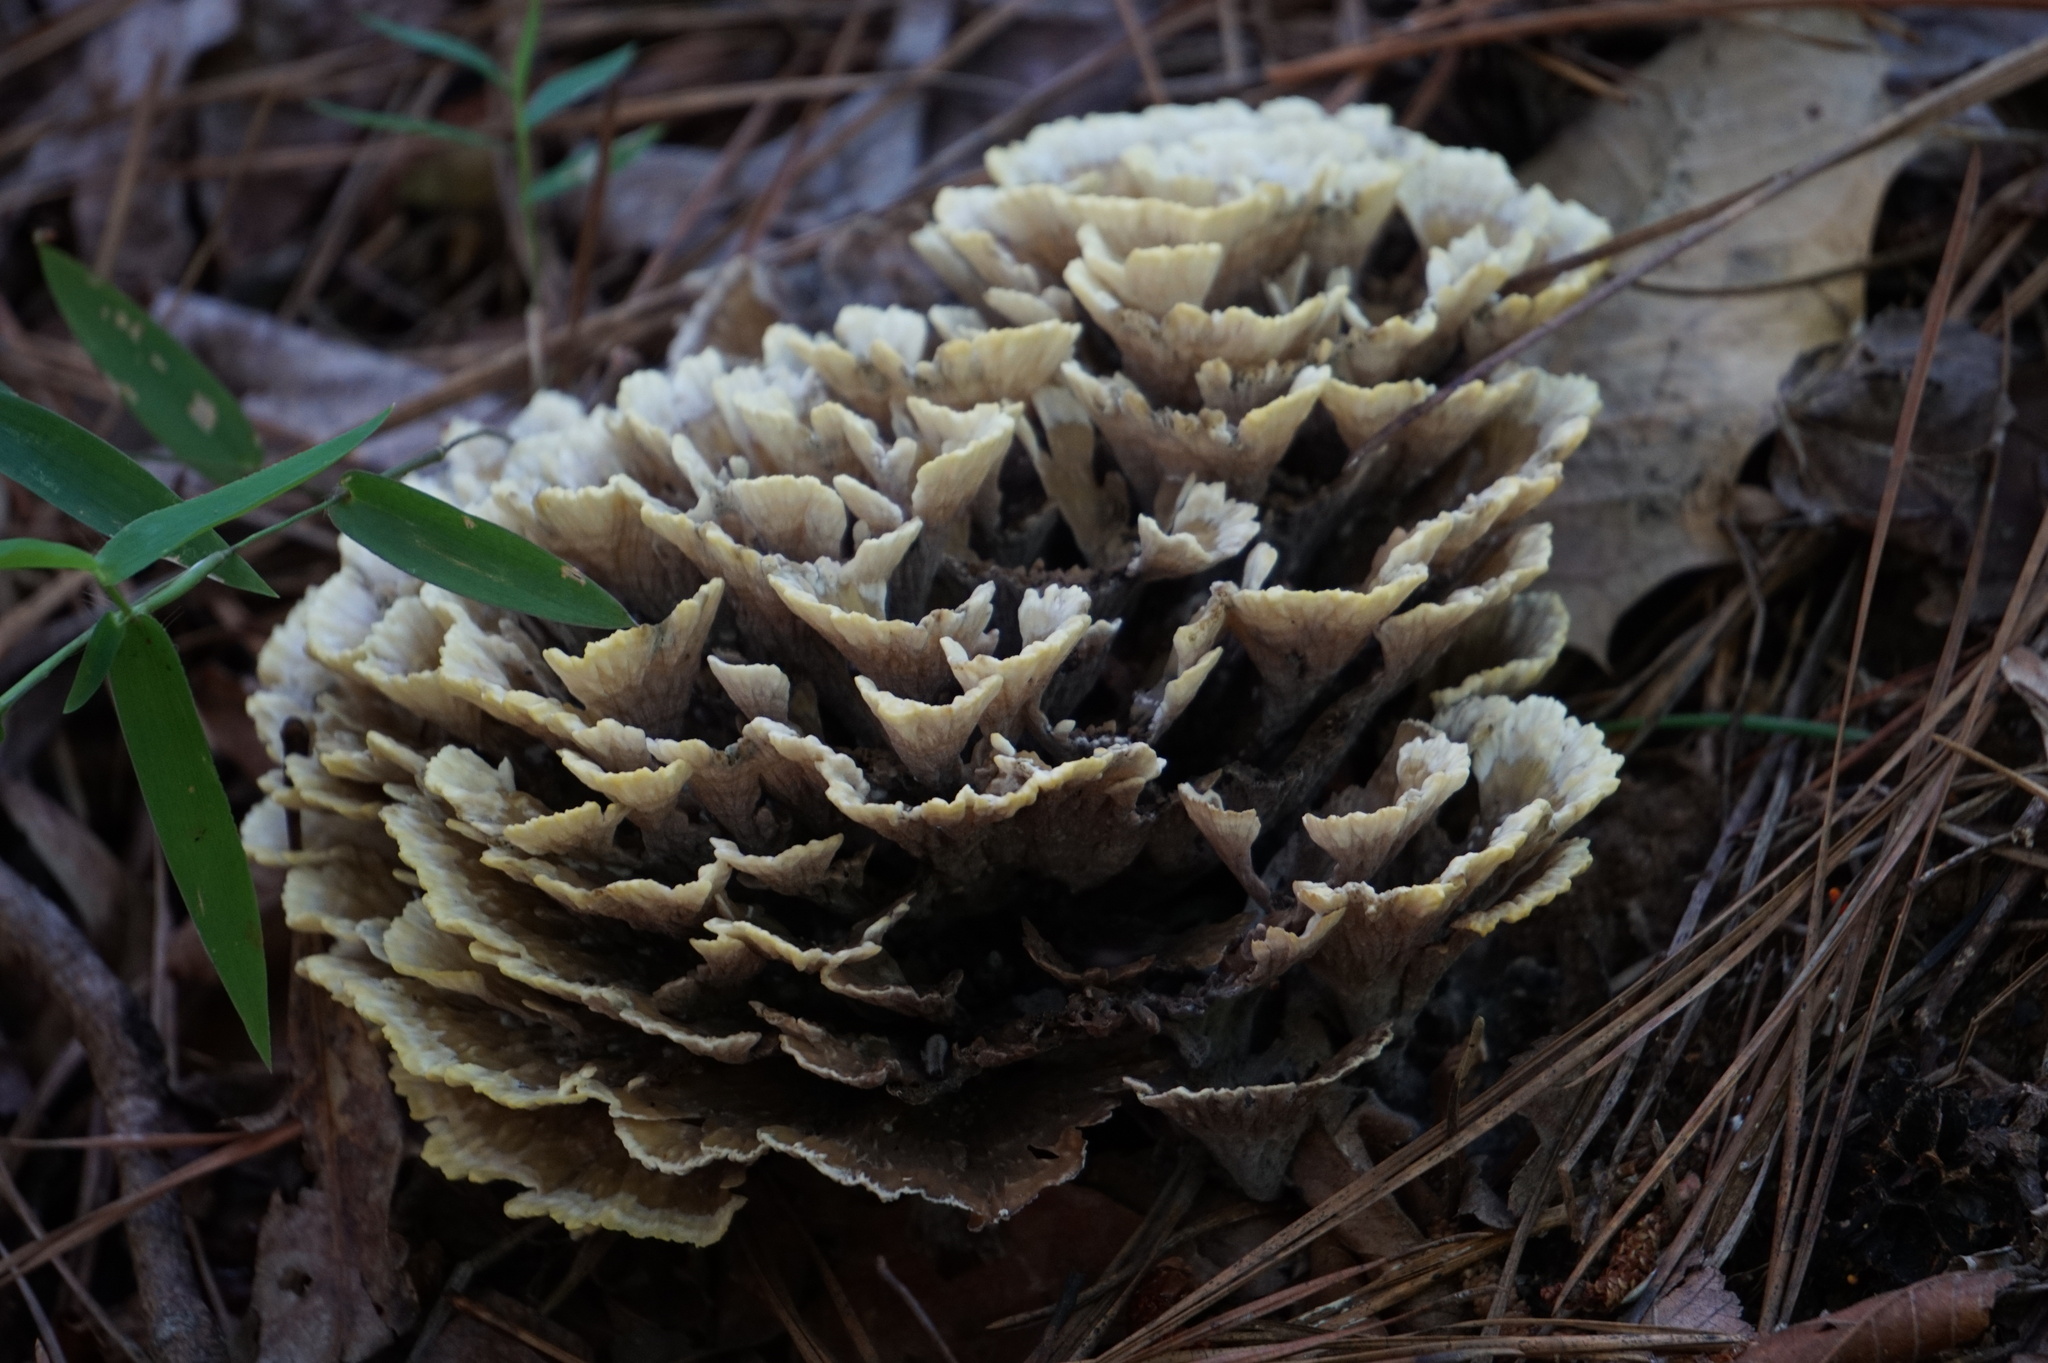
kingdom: Fungi
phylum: Basidiomycota
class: Agaricomycetes
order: Thelephorales
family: Thelephoraceae
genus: Thelephora
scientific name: Thelephora vialis
